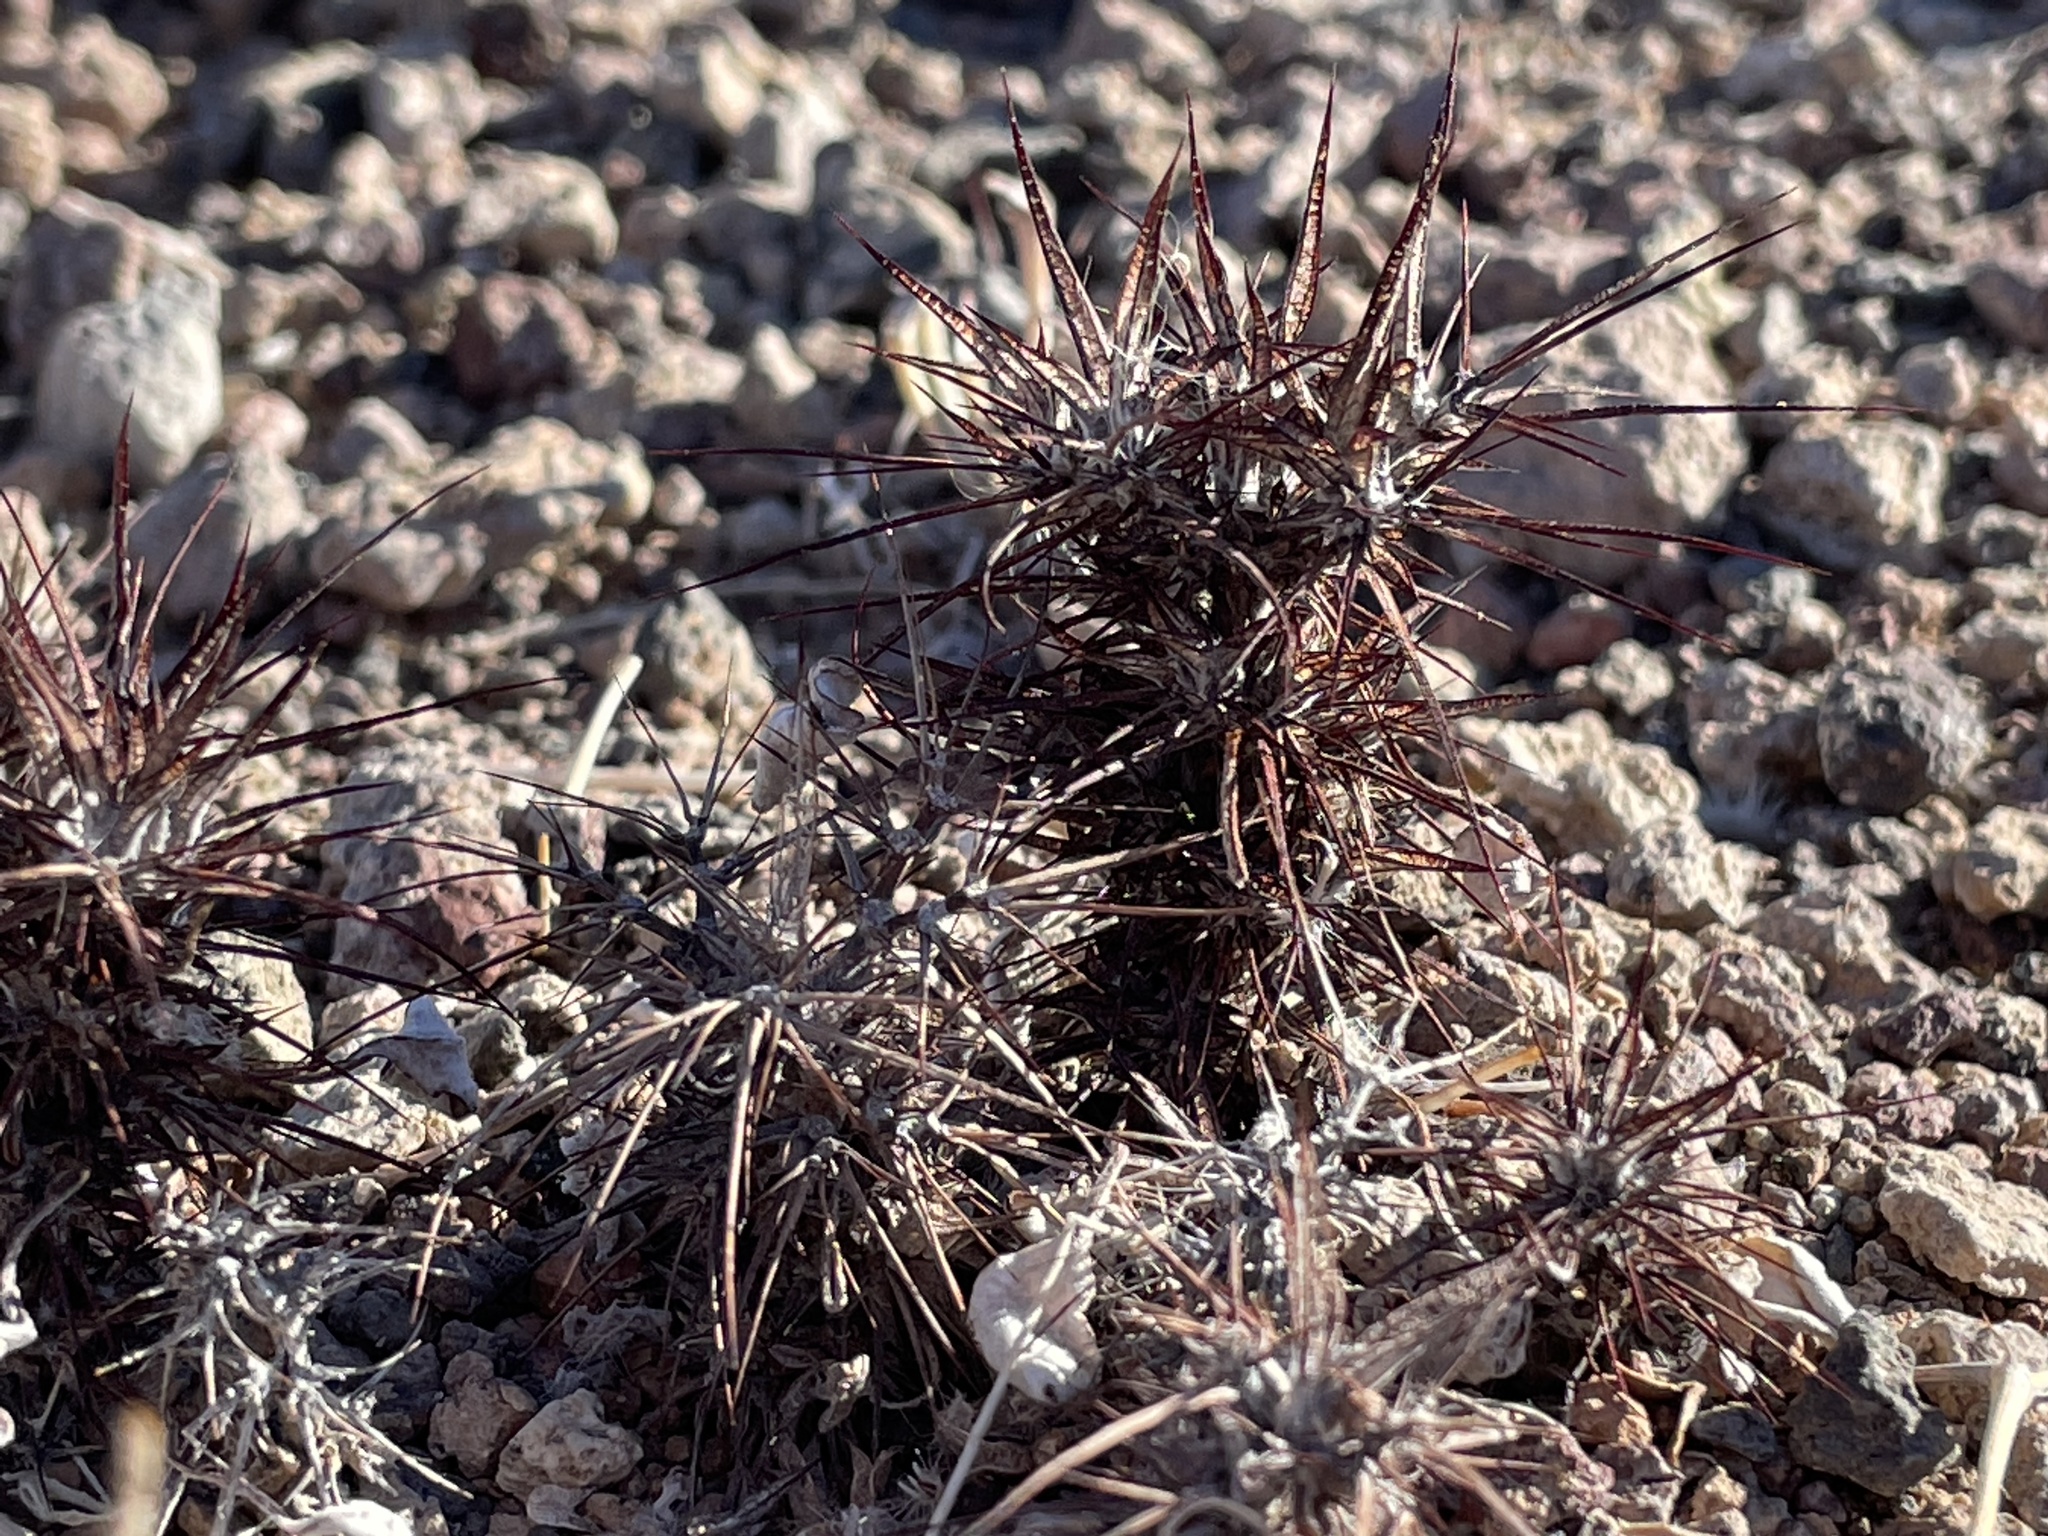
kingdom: Plantae
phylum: Tracheophyta
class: Magnoliopsida
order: Caryophyllales
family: Polygonaceae
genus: Chorizanthe
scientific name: Chorizanthe rigida
